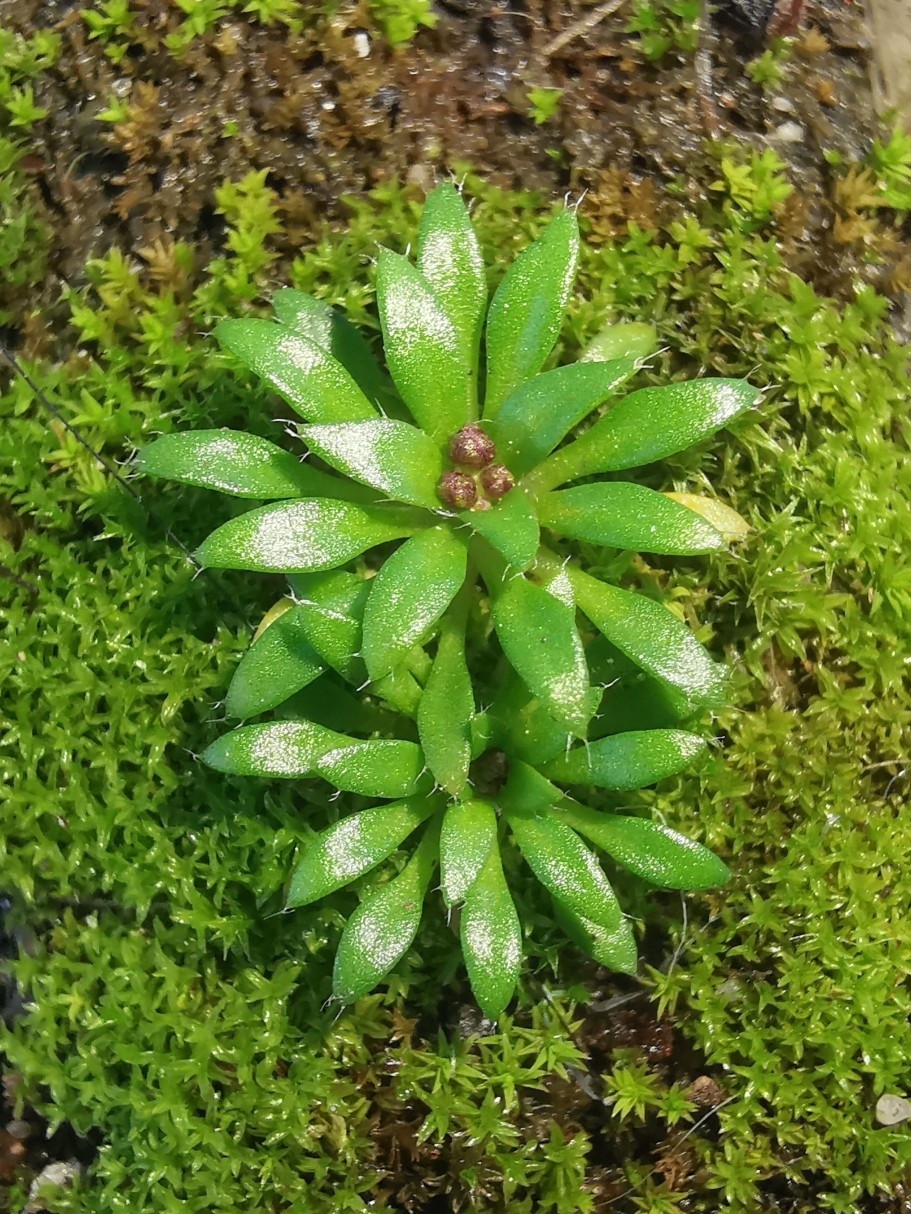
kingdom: Plantae
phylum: Tracheophyta
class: Magnoliopsida
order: Brassicales
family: Brassicaceae
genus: Draba
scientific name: Draba verna
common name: Spring draba
